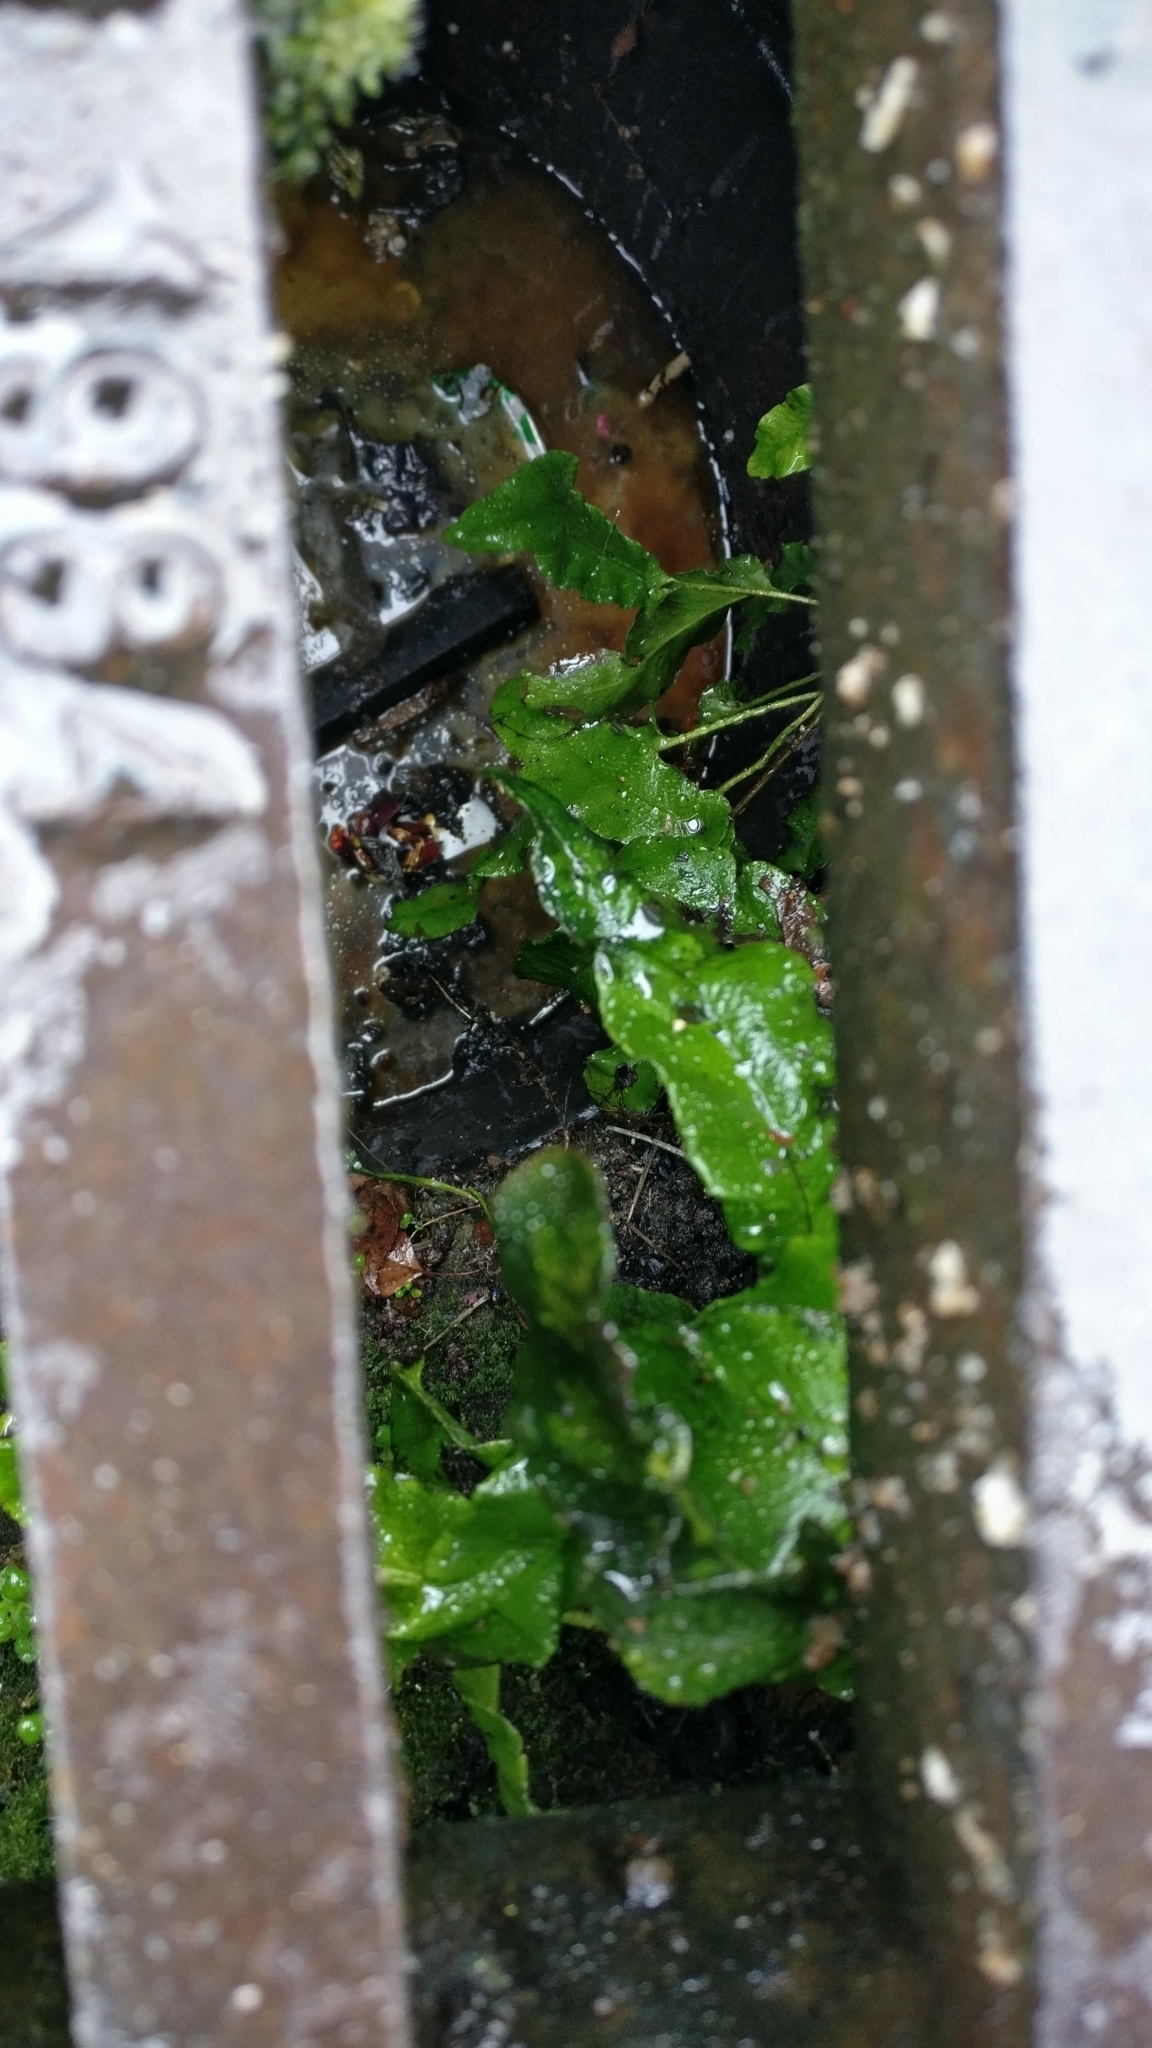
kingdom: Plantae
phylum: Tracheophyta
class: Polypodiopsida
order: Polypodiales
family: Aspleniaceae
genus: Asplenium
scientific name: Asplenium scolopendrium
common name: Hart's-tongue fern
